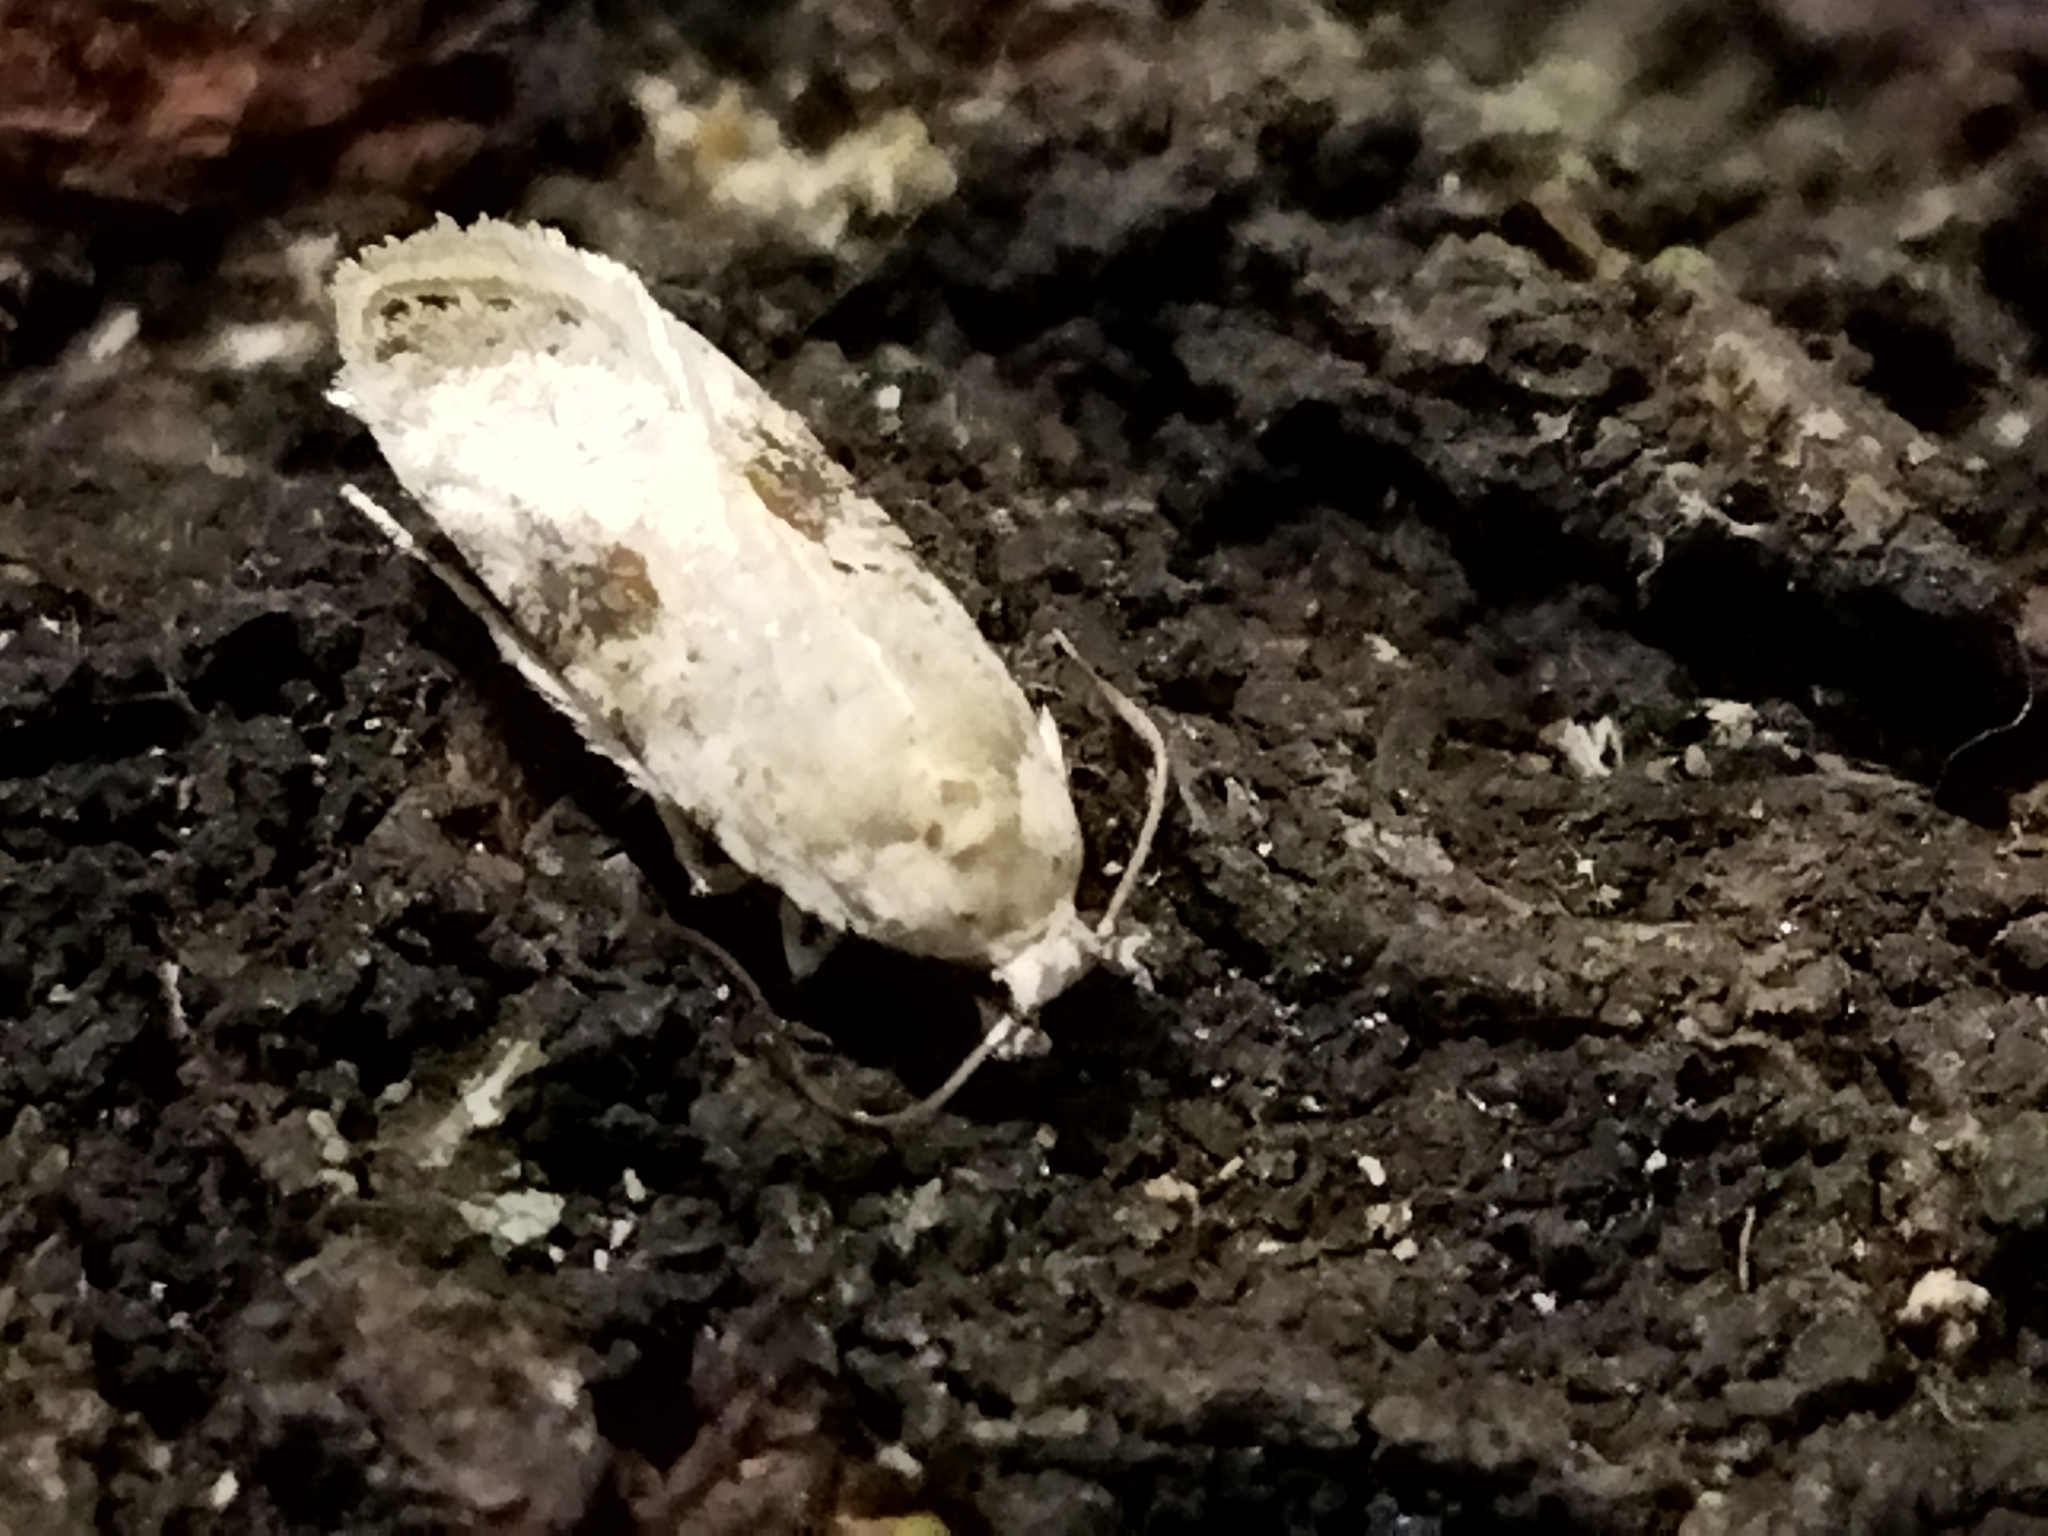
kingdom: Animalia
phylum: Arthropoda
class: Insecta
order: Lepidoptera
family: Depressariidae
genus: Agonopterix
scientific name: Agonopterix alstroemeriana
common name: Moth
